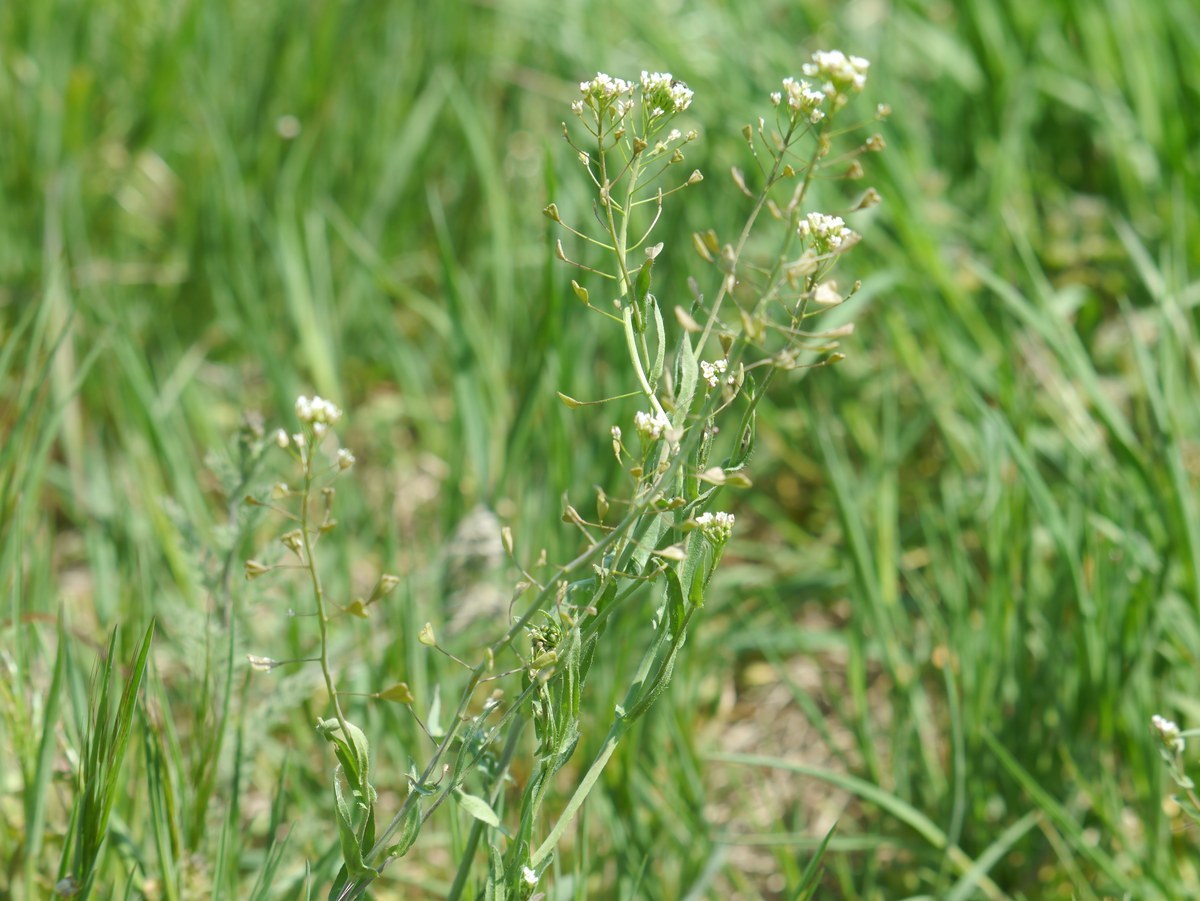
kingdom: Plantae
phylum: Tracheophyta
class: Magnoliopsida
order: Brassicales
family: Brassicaceae
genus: Capsella
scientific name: Capsella bursa-pastoris
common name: Shepherd's purse
